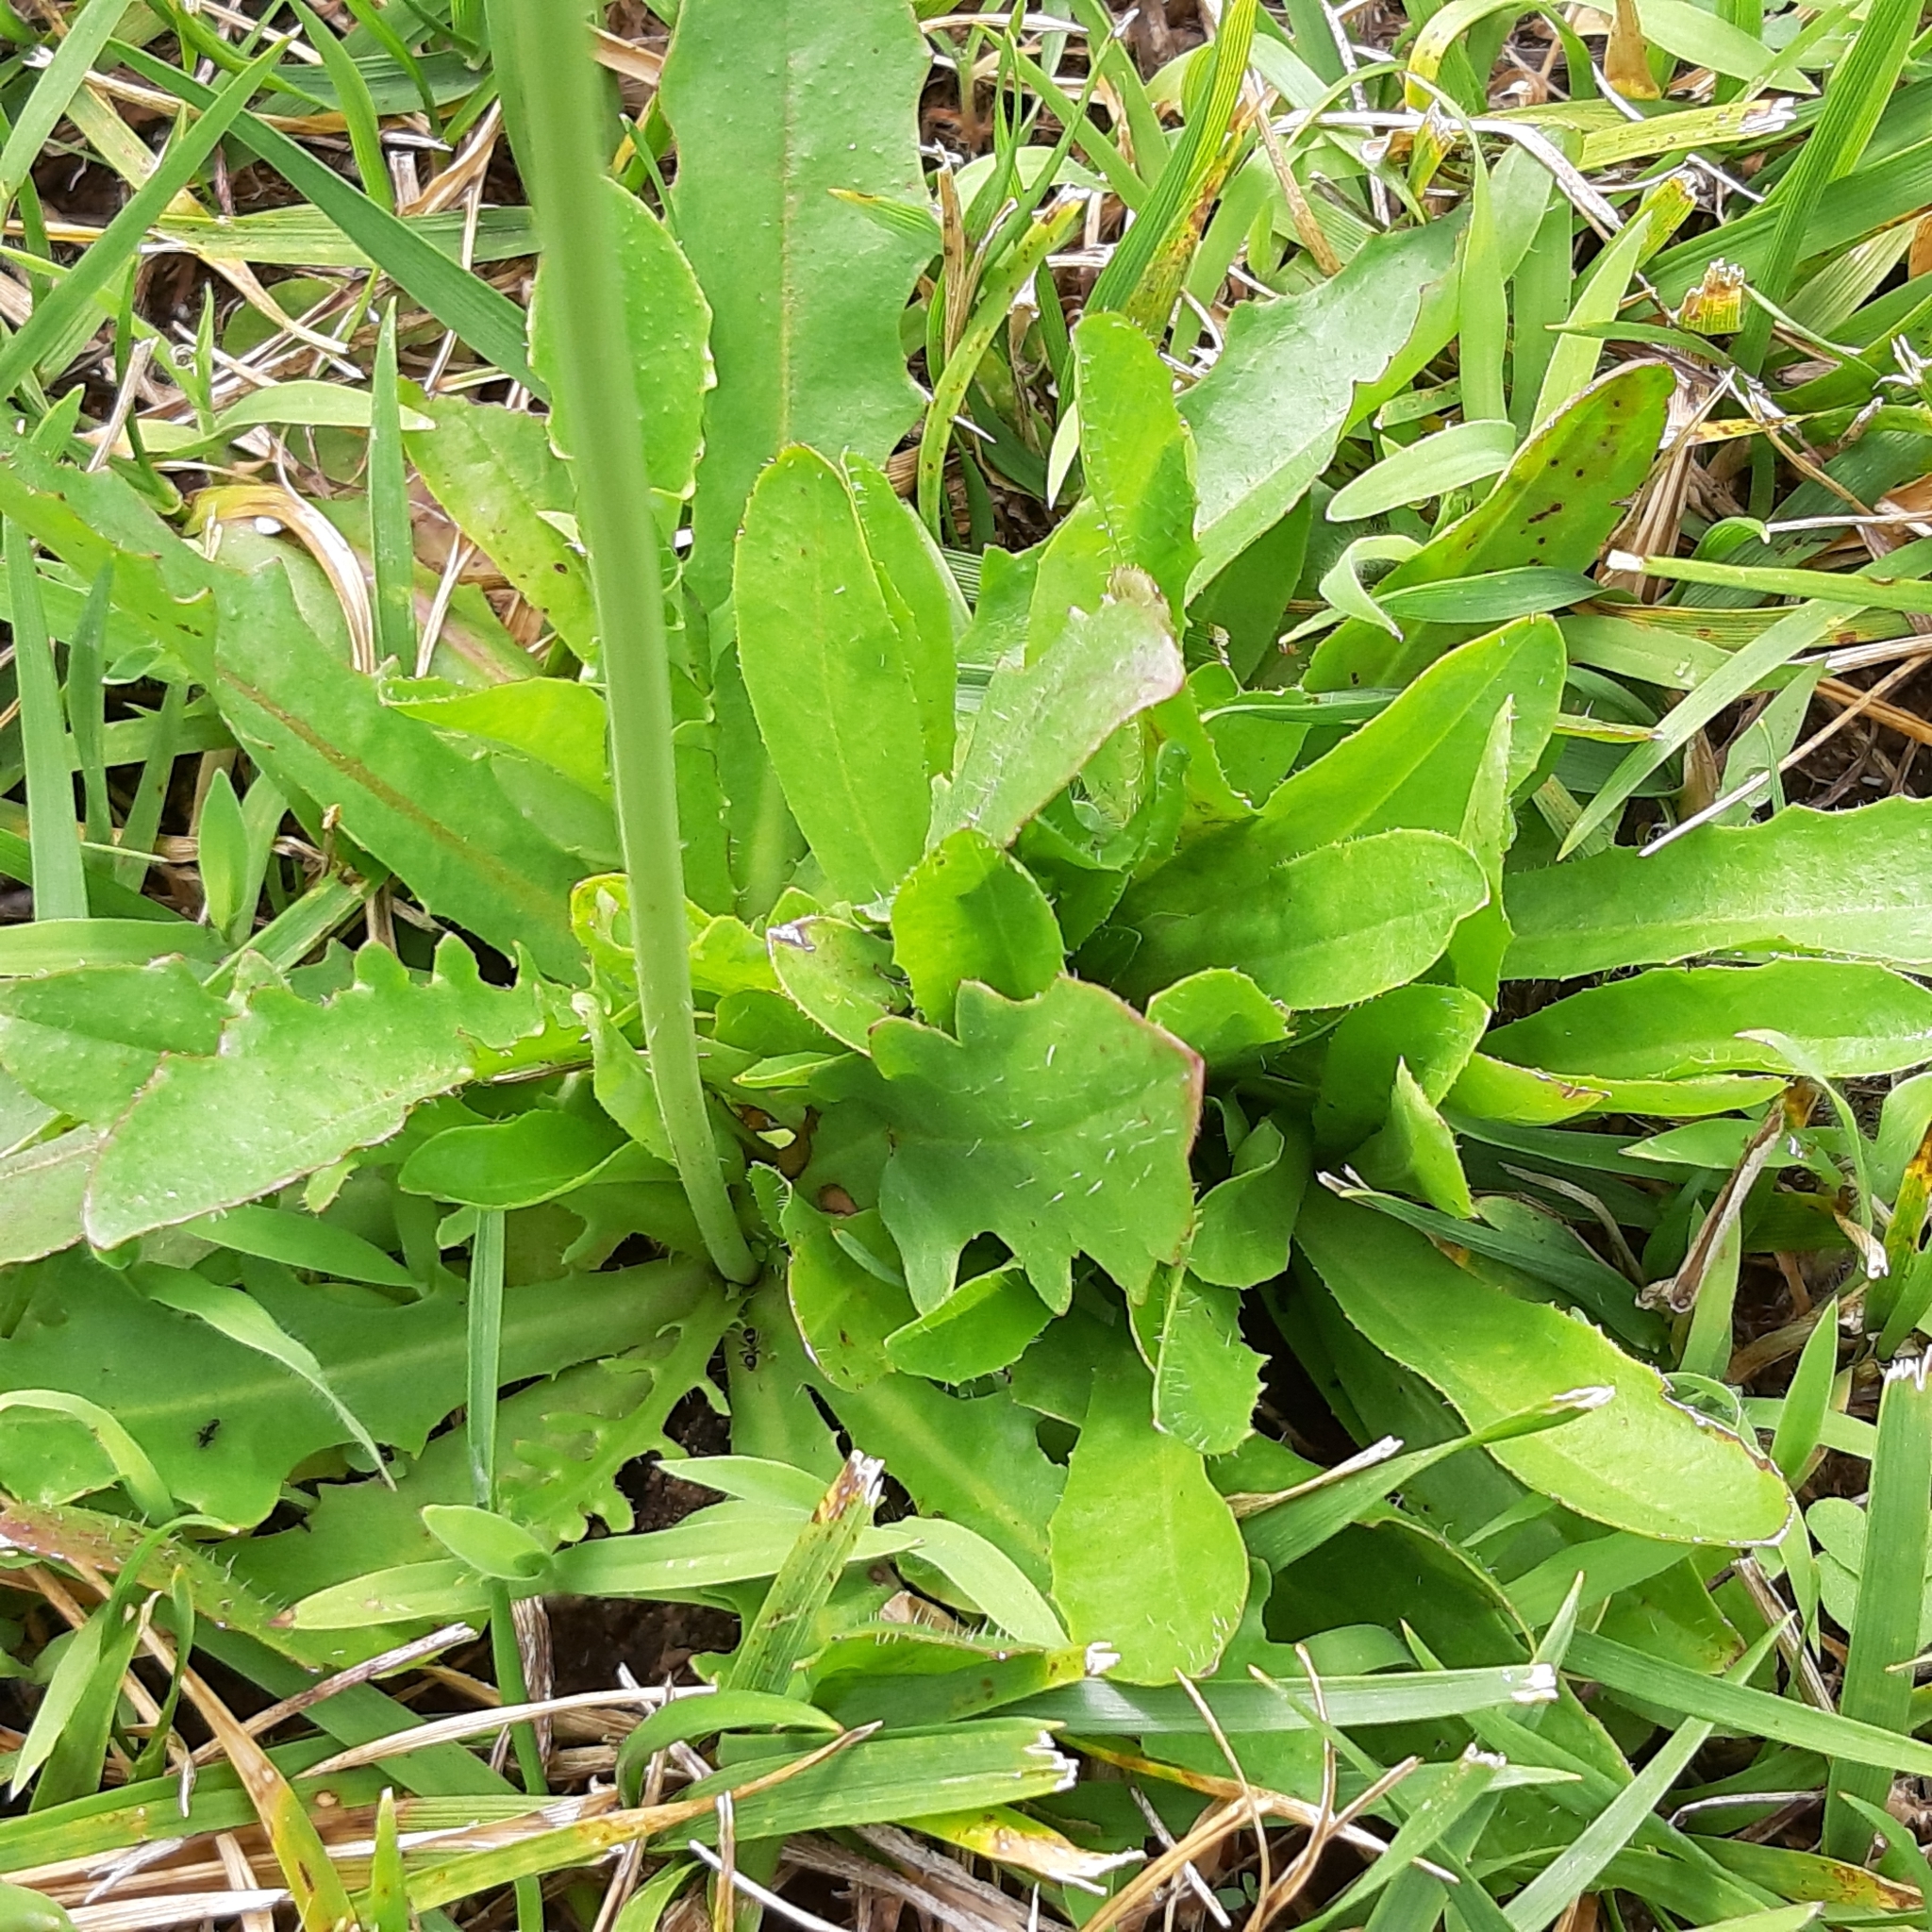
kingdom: Plantae
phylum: Tracheophyta
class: Magnoliopsida
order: Asterales
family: Asteraceae
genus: Hypochaeris
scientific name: Hypochaeris radicata
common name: Flatweed
